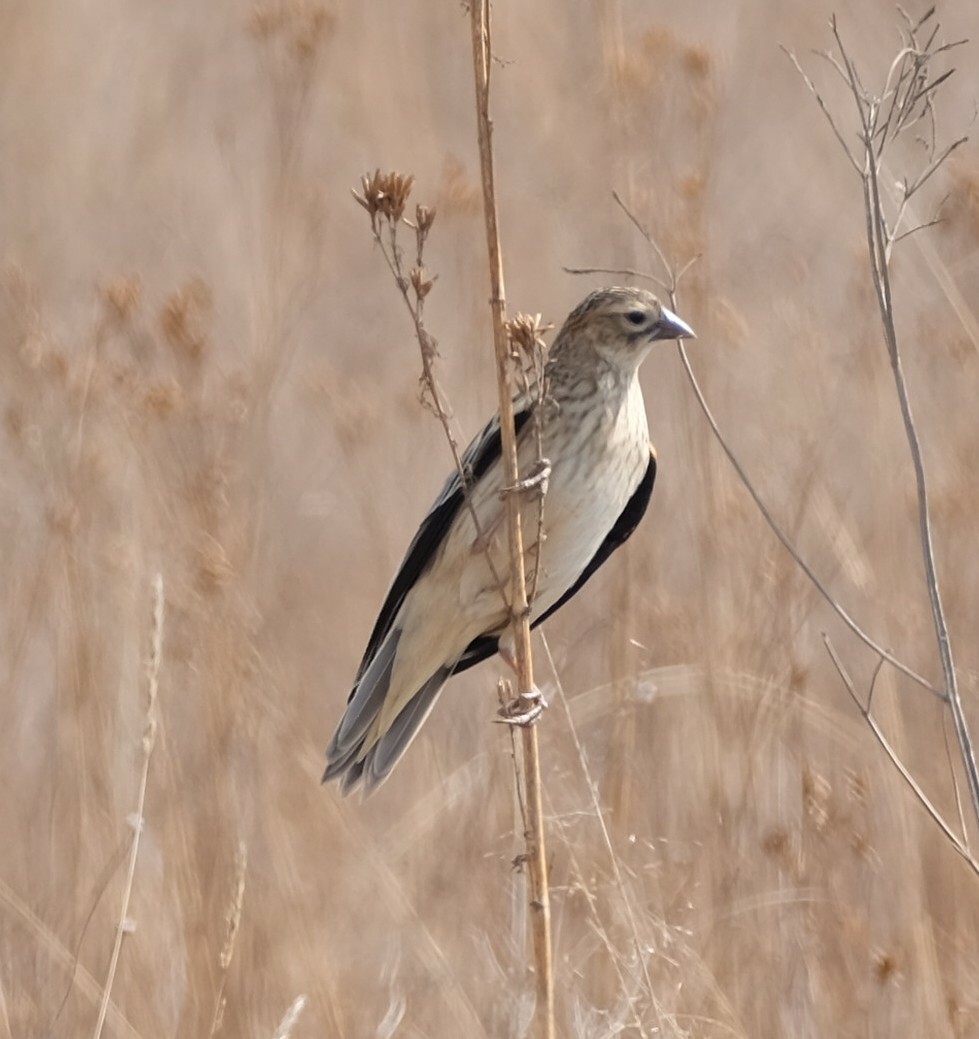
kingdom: Animalia
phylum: Chordata
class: Aves
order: Passeriformes
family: Ploceidae
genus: Euplectes
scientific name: Euplectes progne
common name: Long-tailed widowbird
